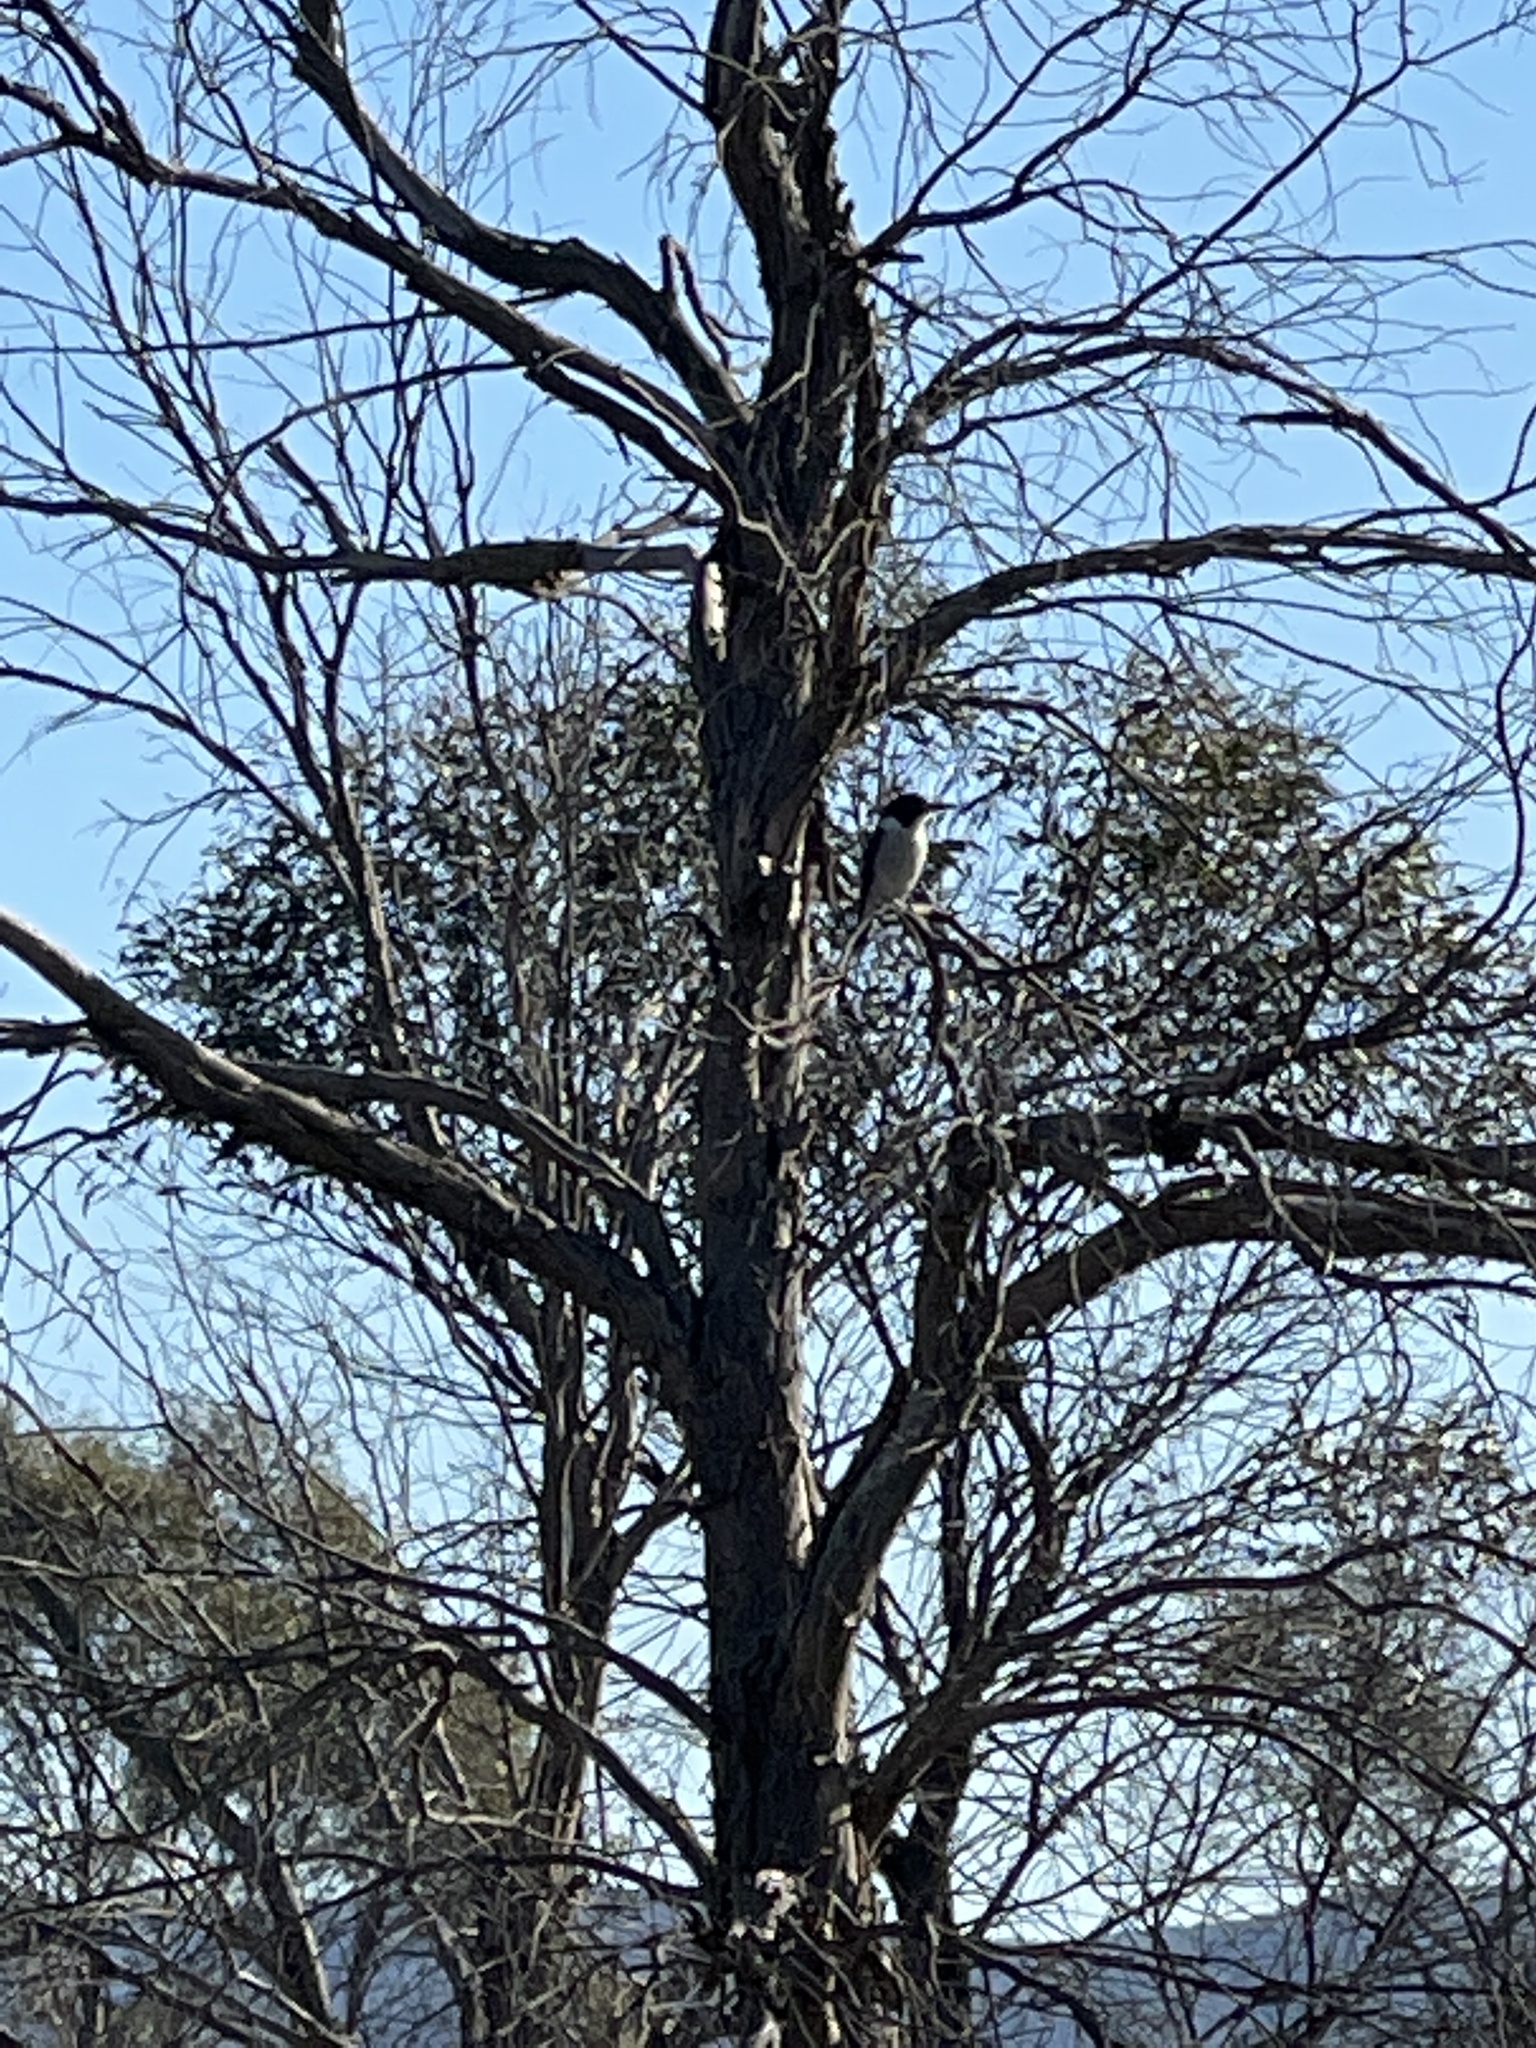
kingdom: Animalia
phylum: Chordata
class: Aves
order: Passeriformes
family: Cracticidae
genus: Cracticus
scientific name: Cracticus torquatus
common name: Grey butcherbird
